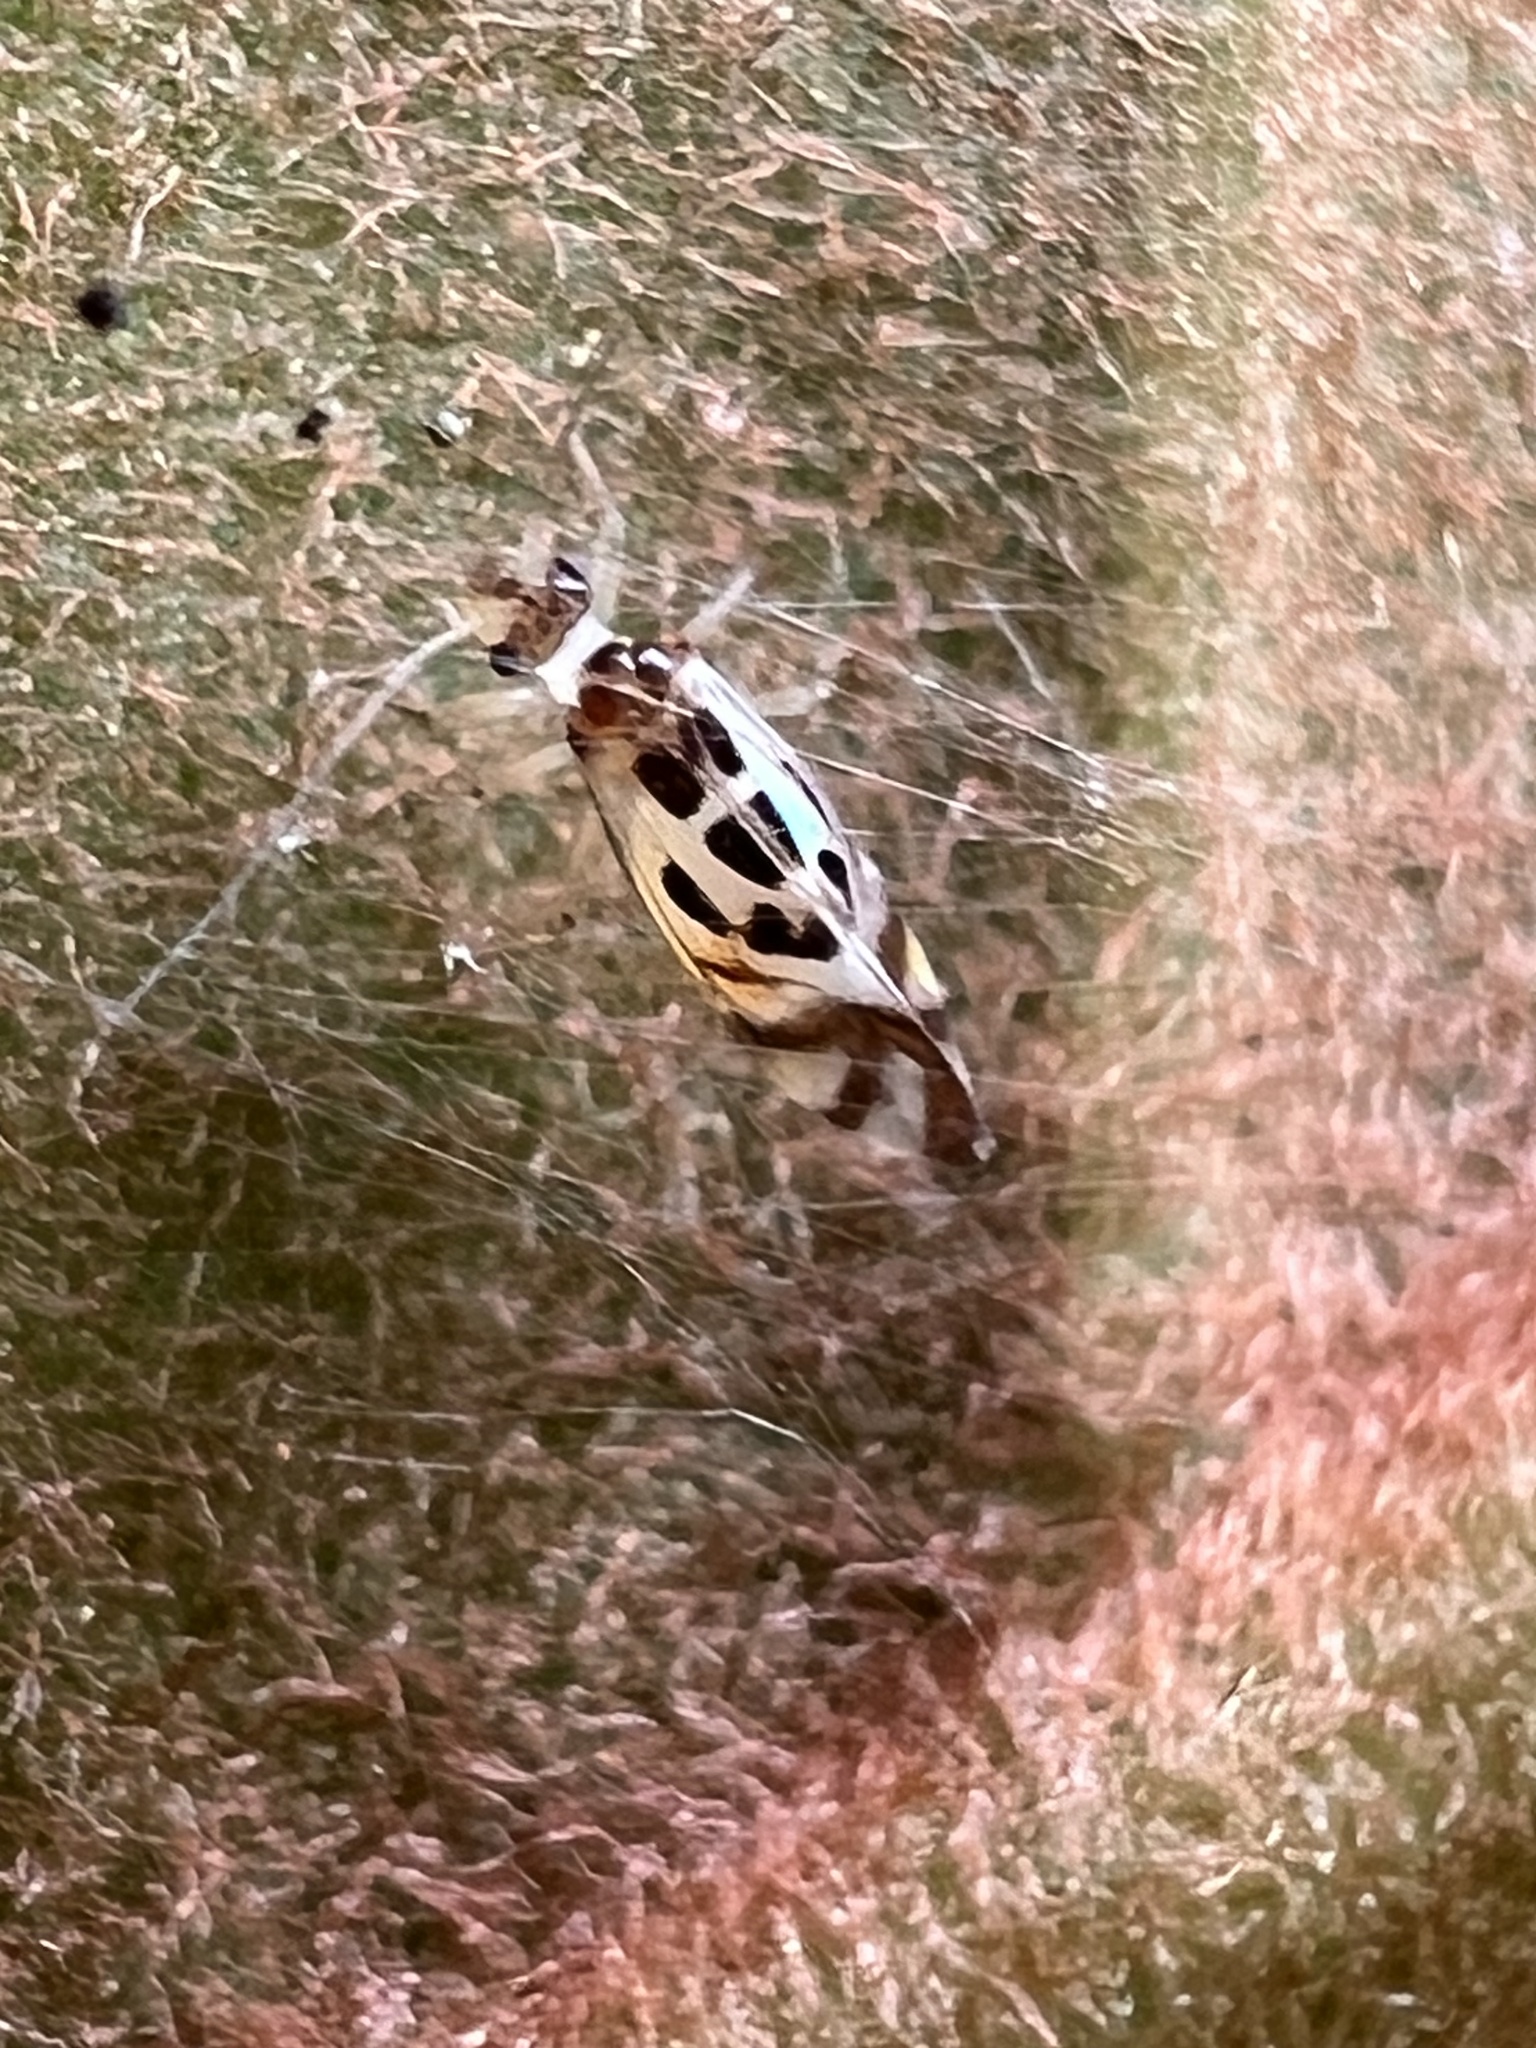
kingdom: Animalia
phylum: Arthropoda
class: Insecta
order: Psocodea
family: Stenopsocidae
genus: Graphopsocus
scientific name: Graphopsocus cruciatus
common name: Lizard bark louse
